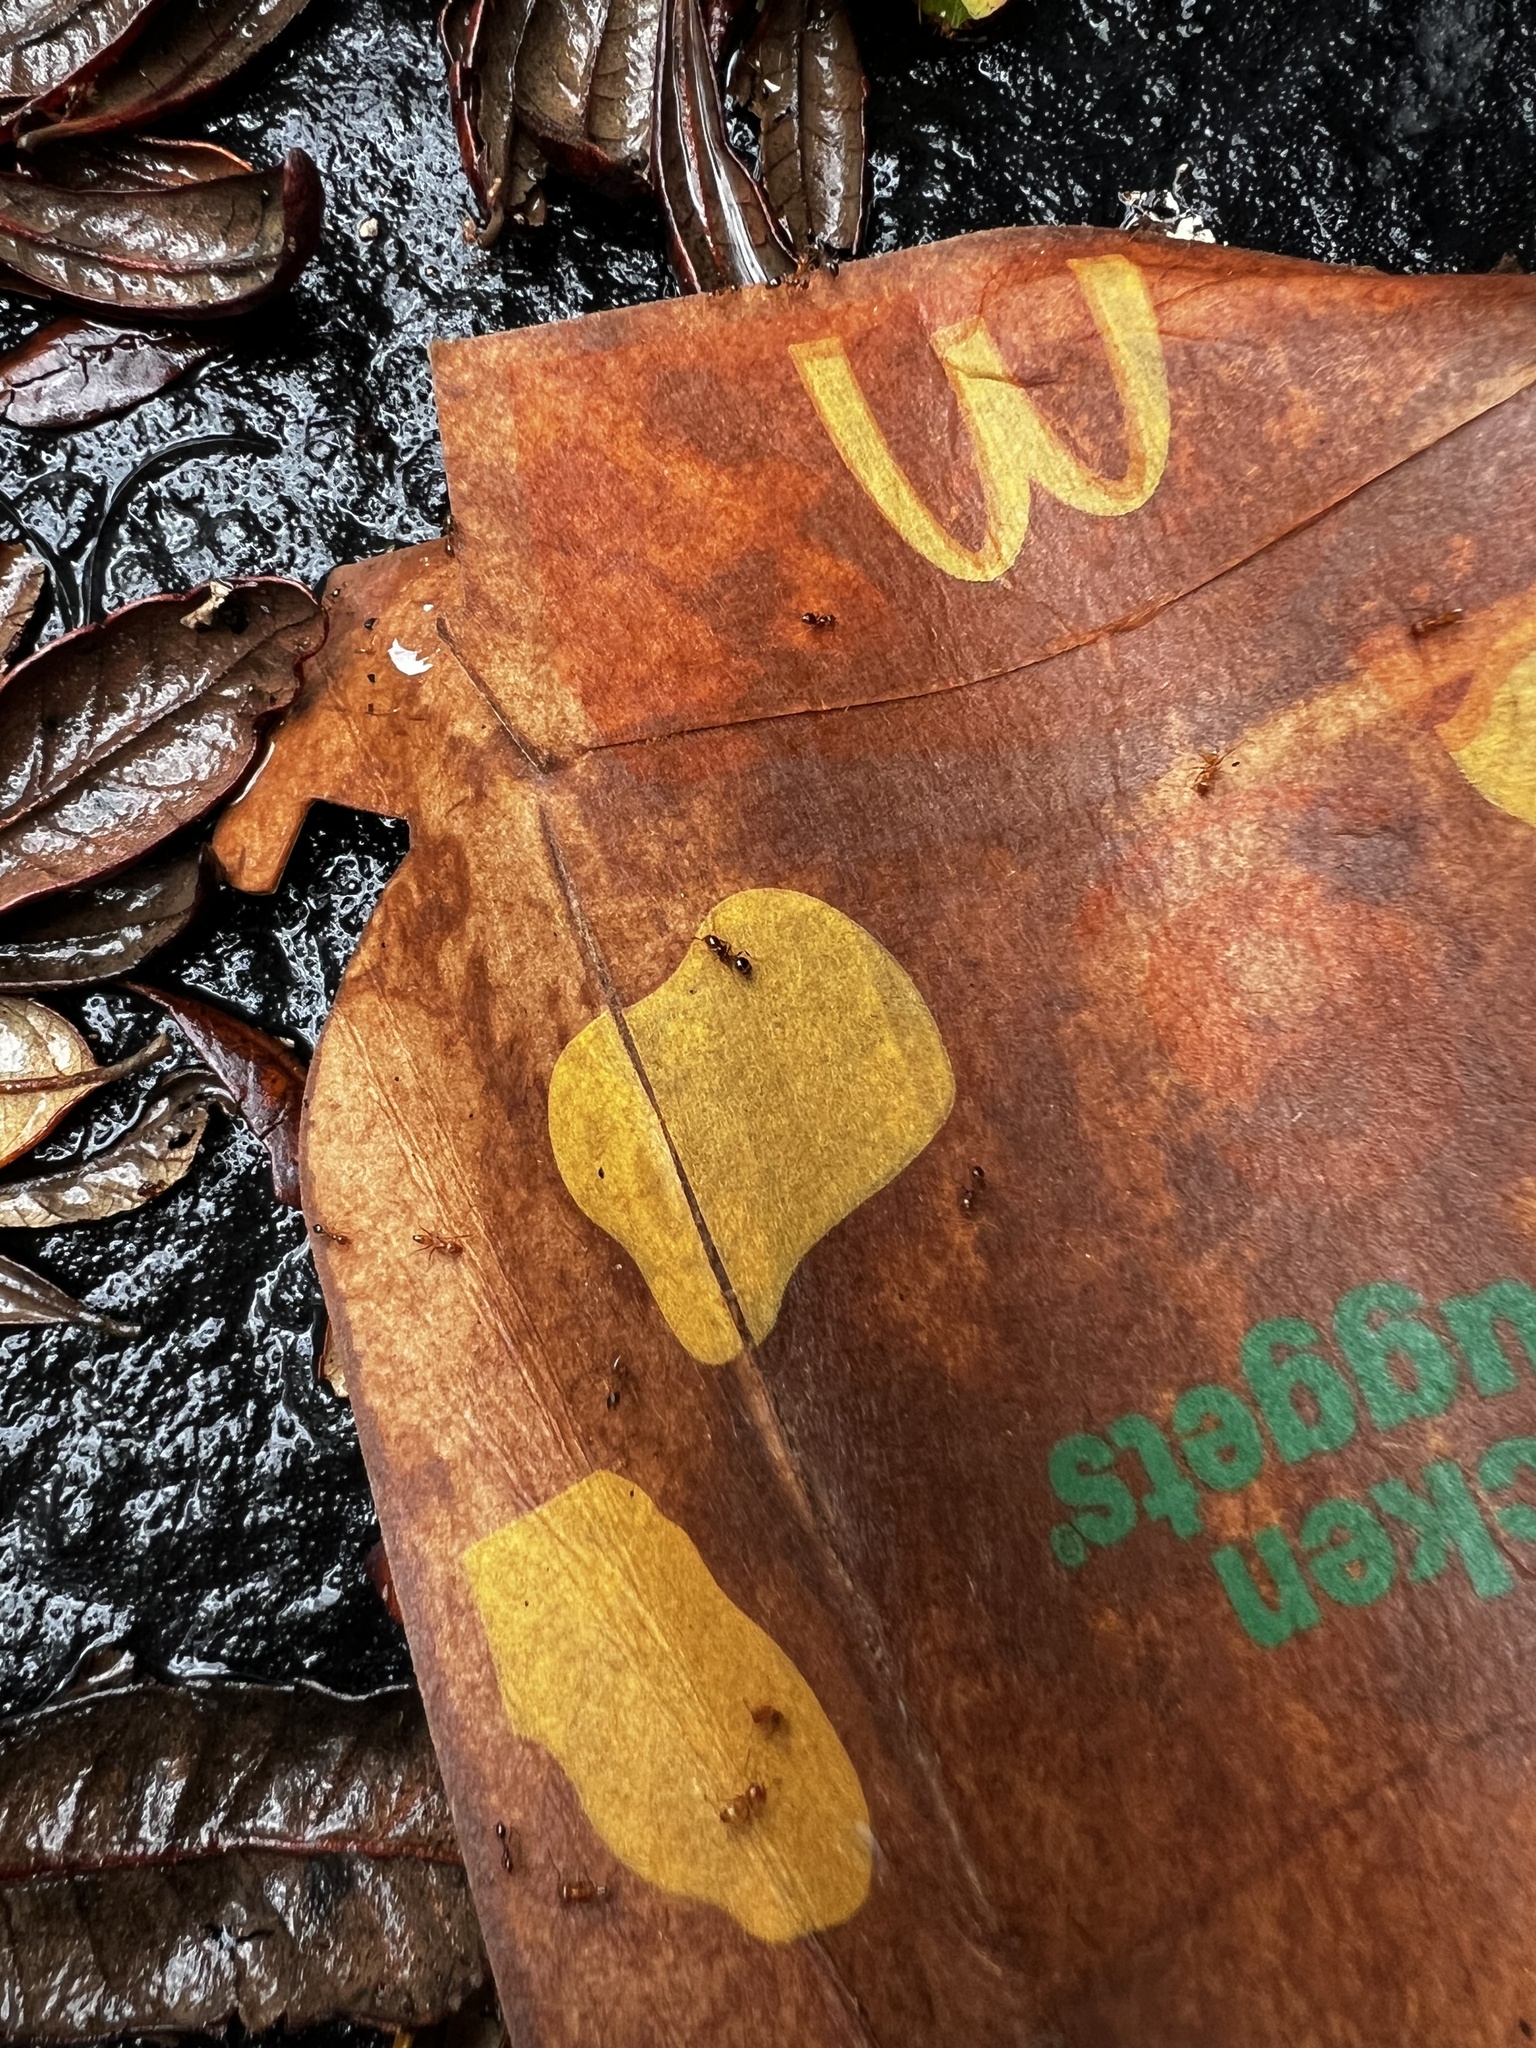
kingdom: Animalia
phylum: Arthropoda
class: Insecta
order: Hymenoptera
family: Formicidae
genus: Solenopsis
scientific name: Solenopsis invicta
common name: Red imported fire ant
